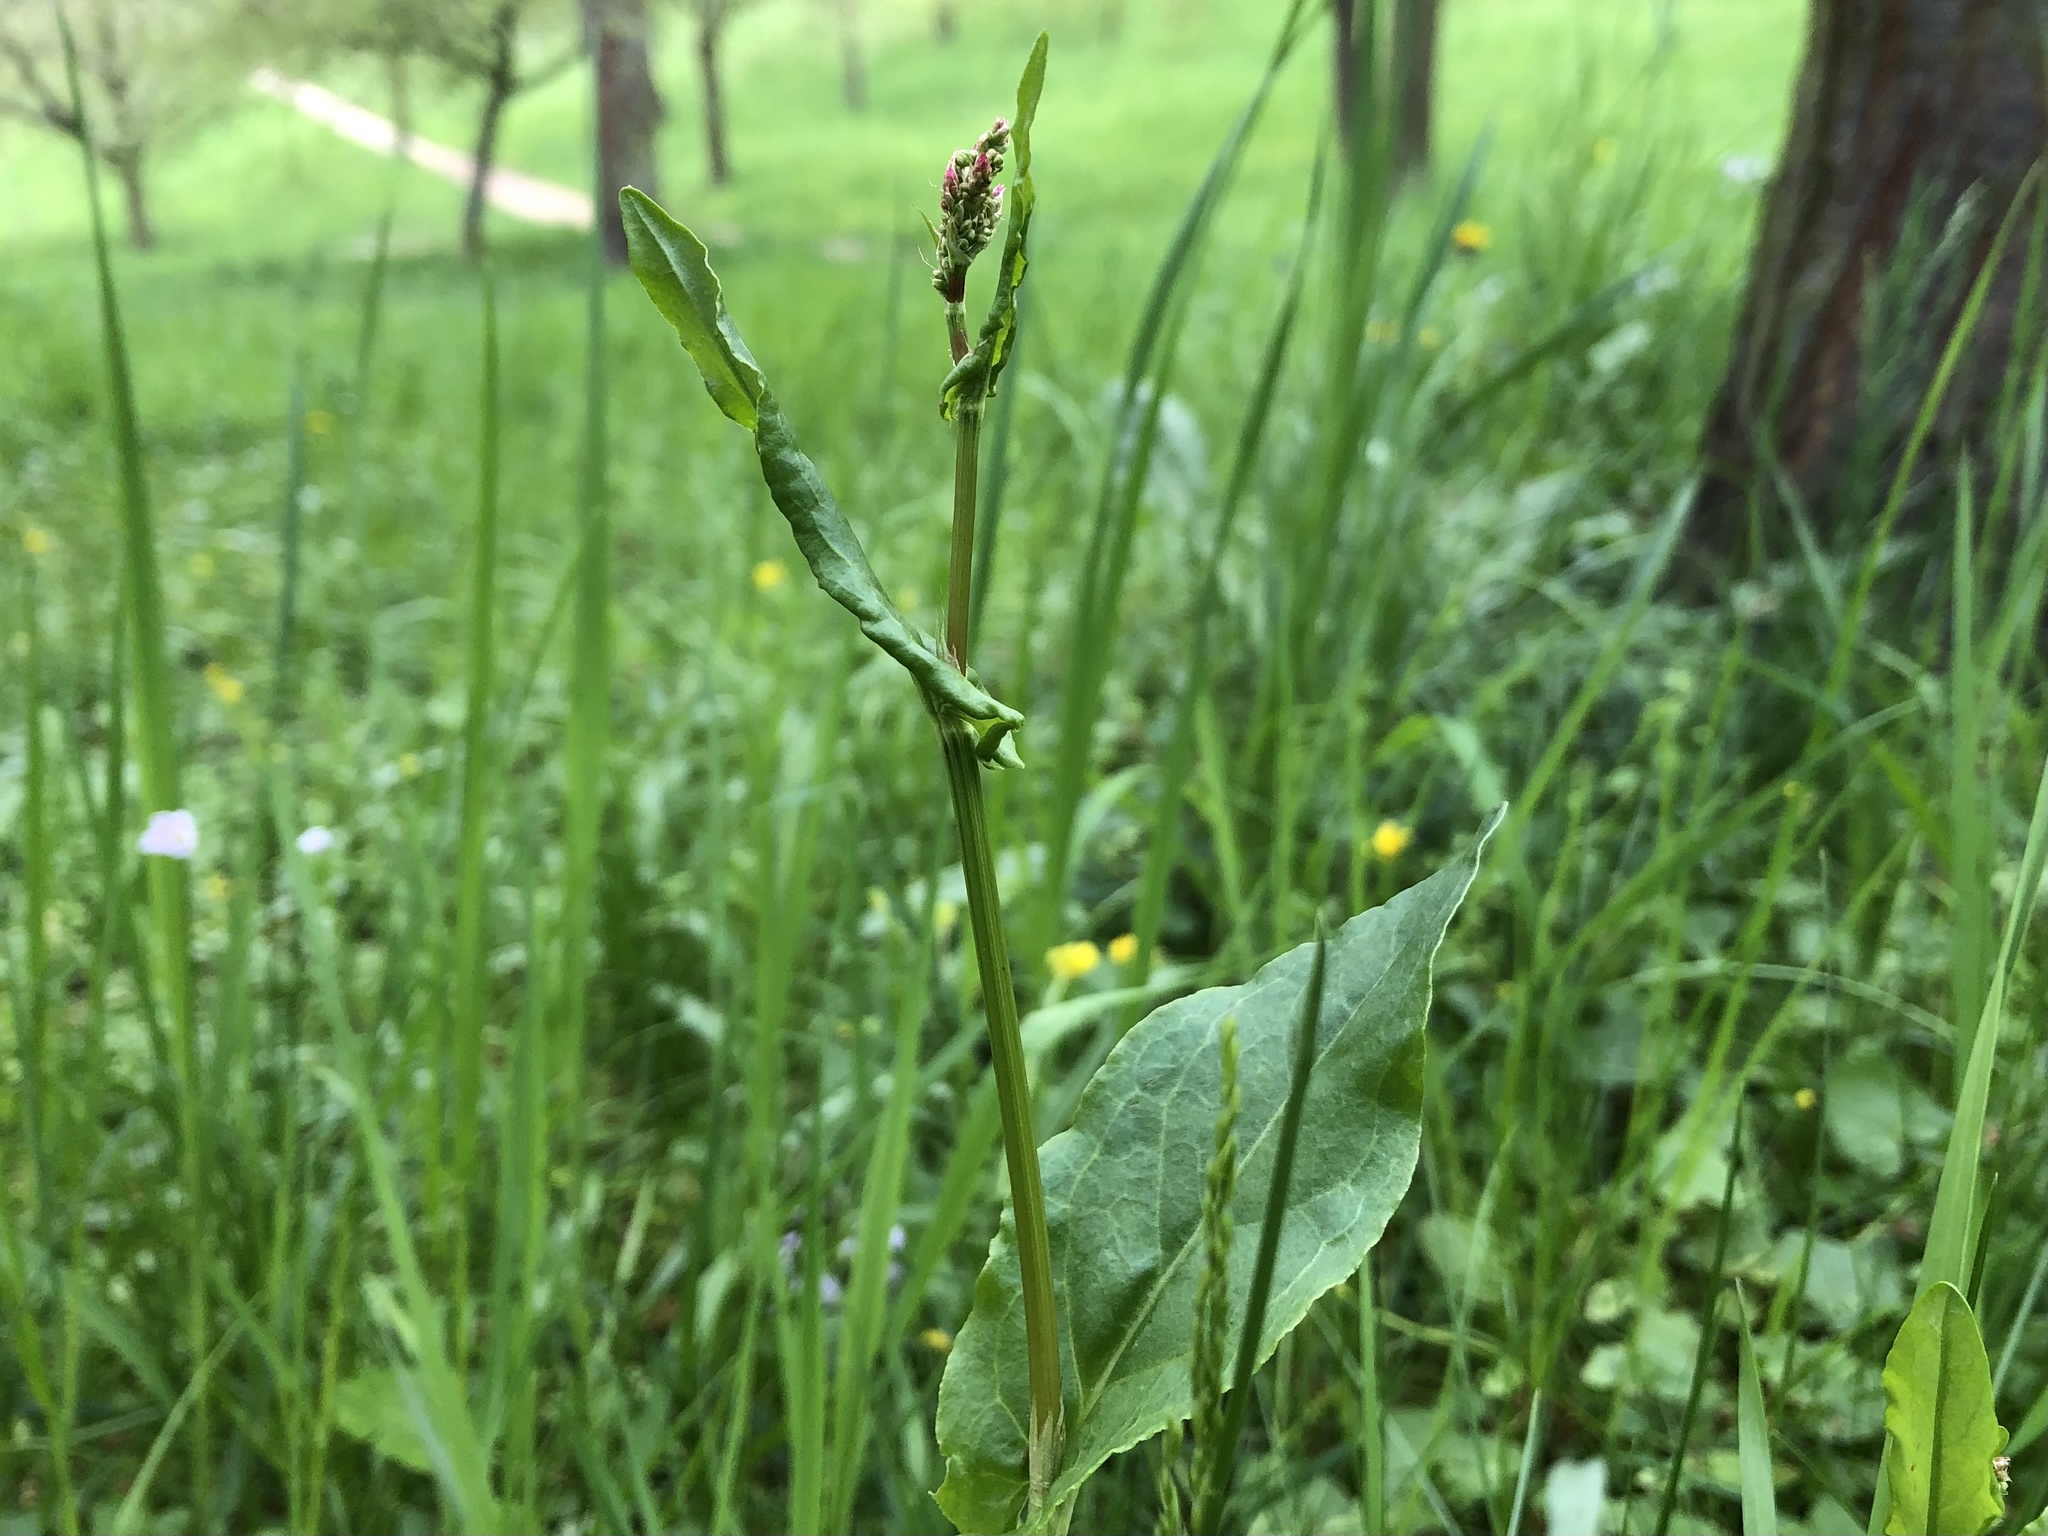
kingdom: Plantae
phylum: Tracheophyta
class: Magnoliopsida
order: Caryophyllales
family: Polygonaceae
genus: Rumex
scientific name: Rumex acetosella
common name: Common sheep sorrel
